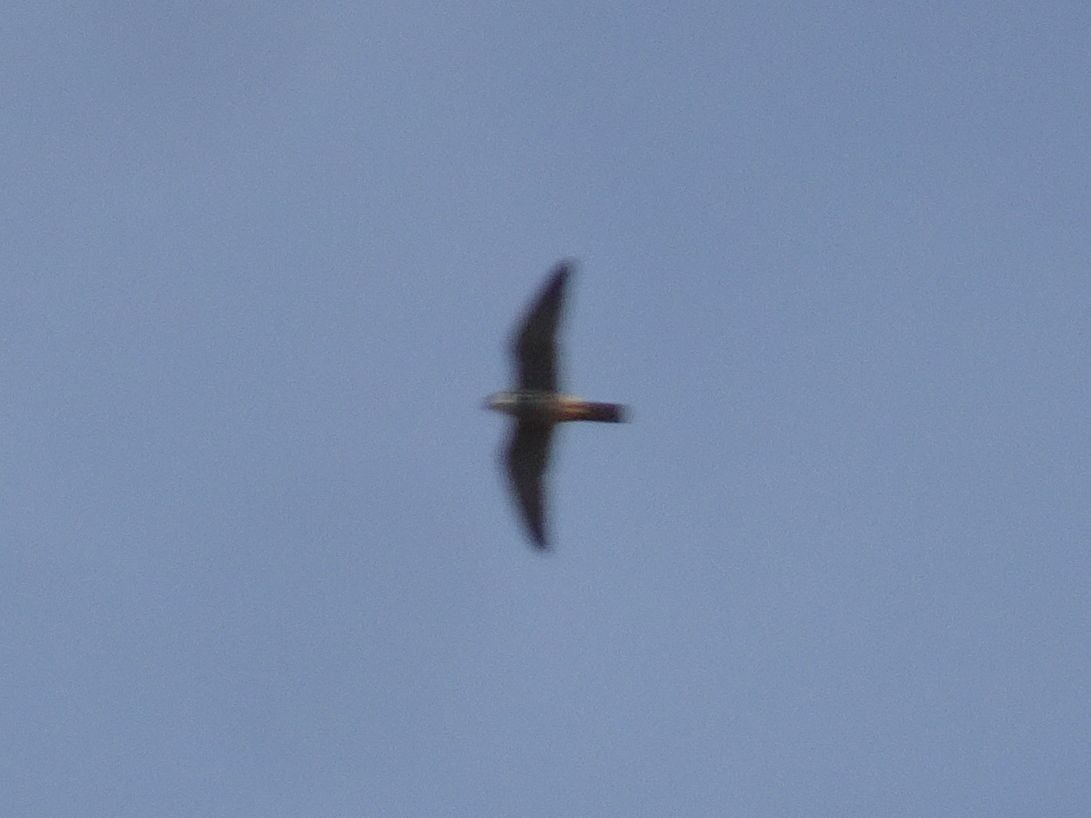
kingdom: Animalia
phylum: Chordata
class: Aves
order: Falconiformes
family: Falconidae
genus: Falco
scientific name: Falco subbuteo
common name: Eurasian hobby
